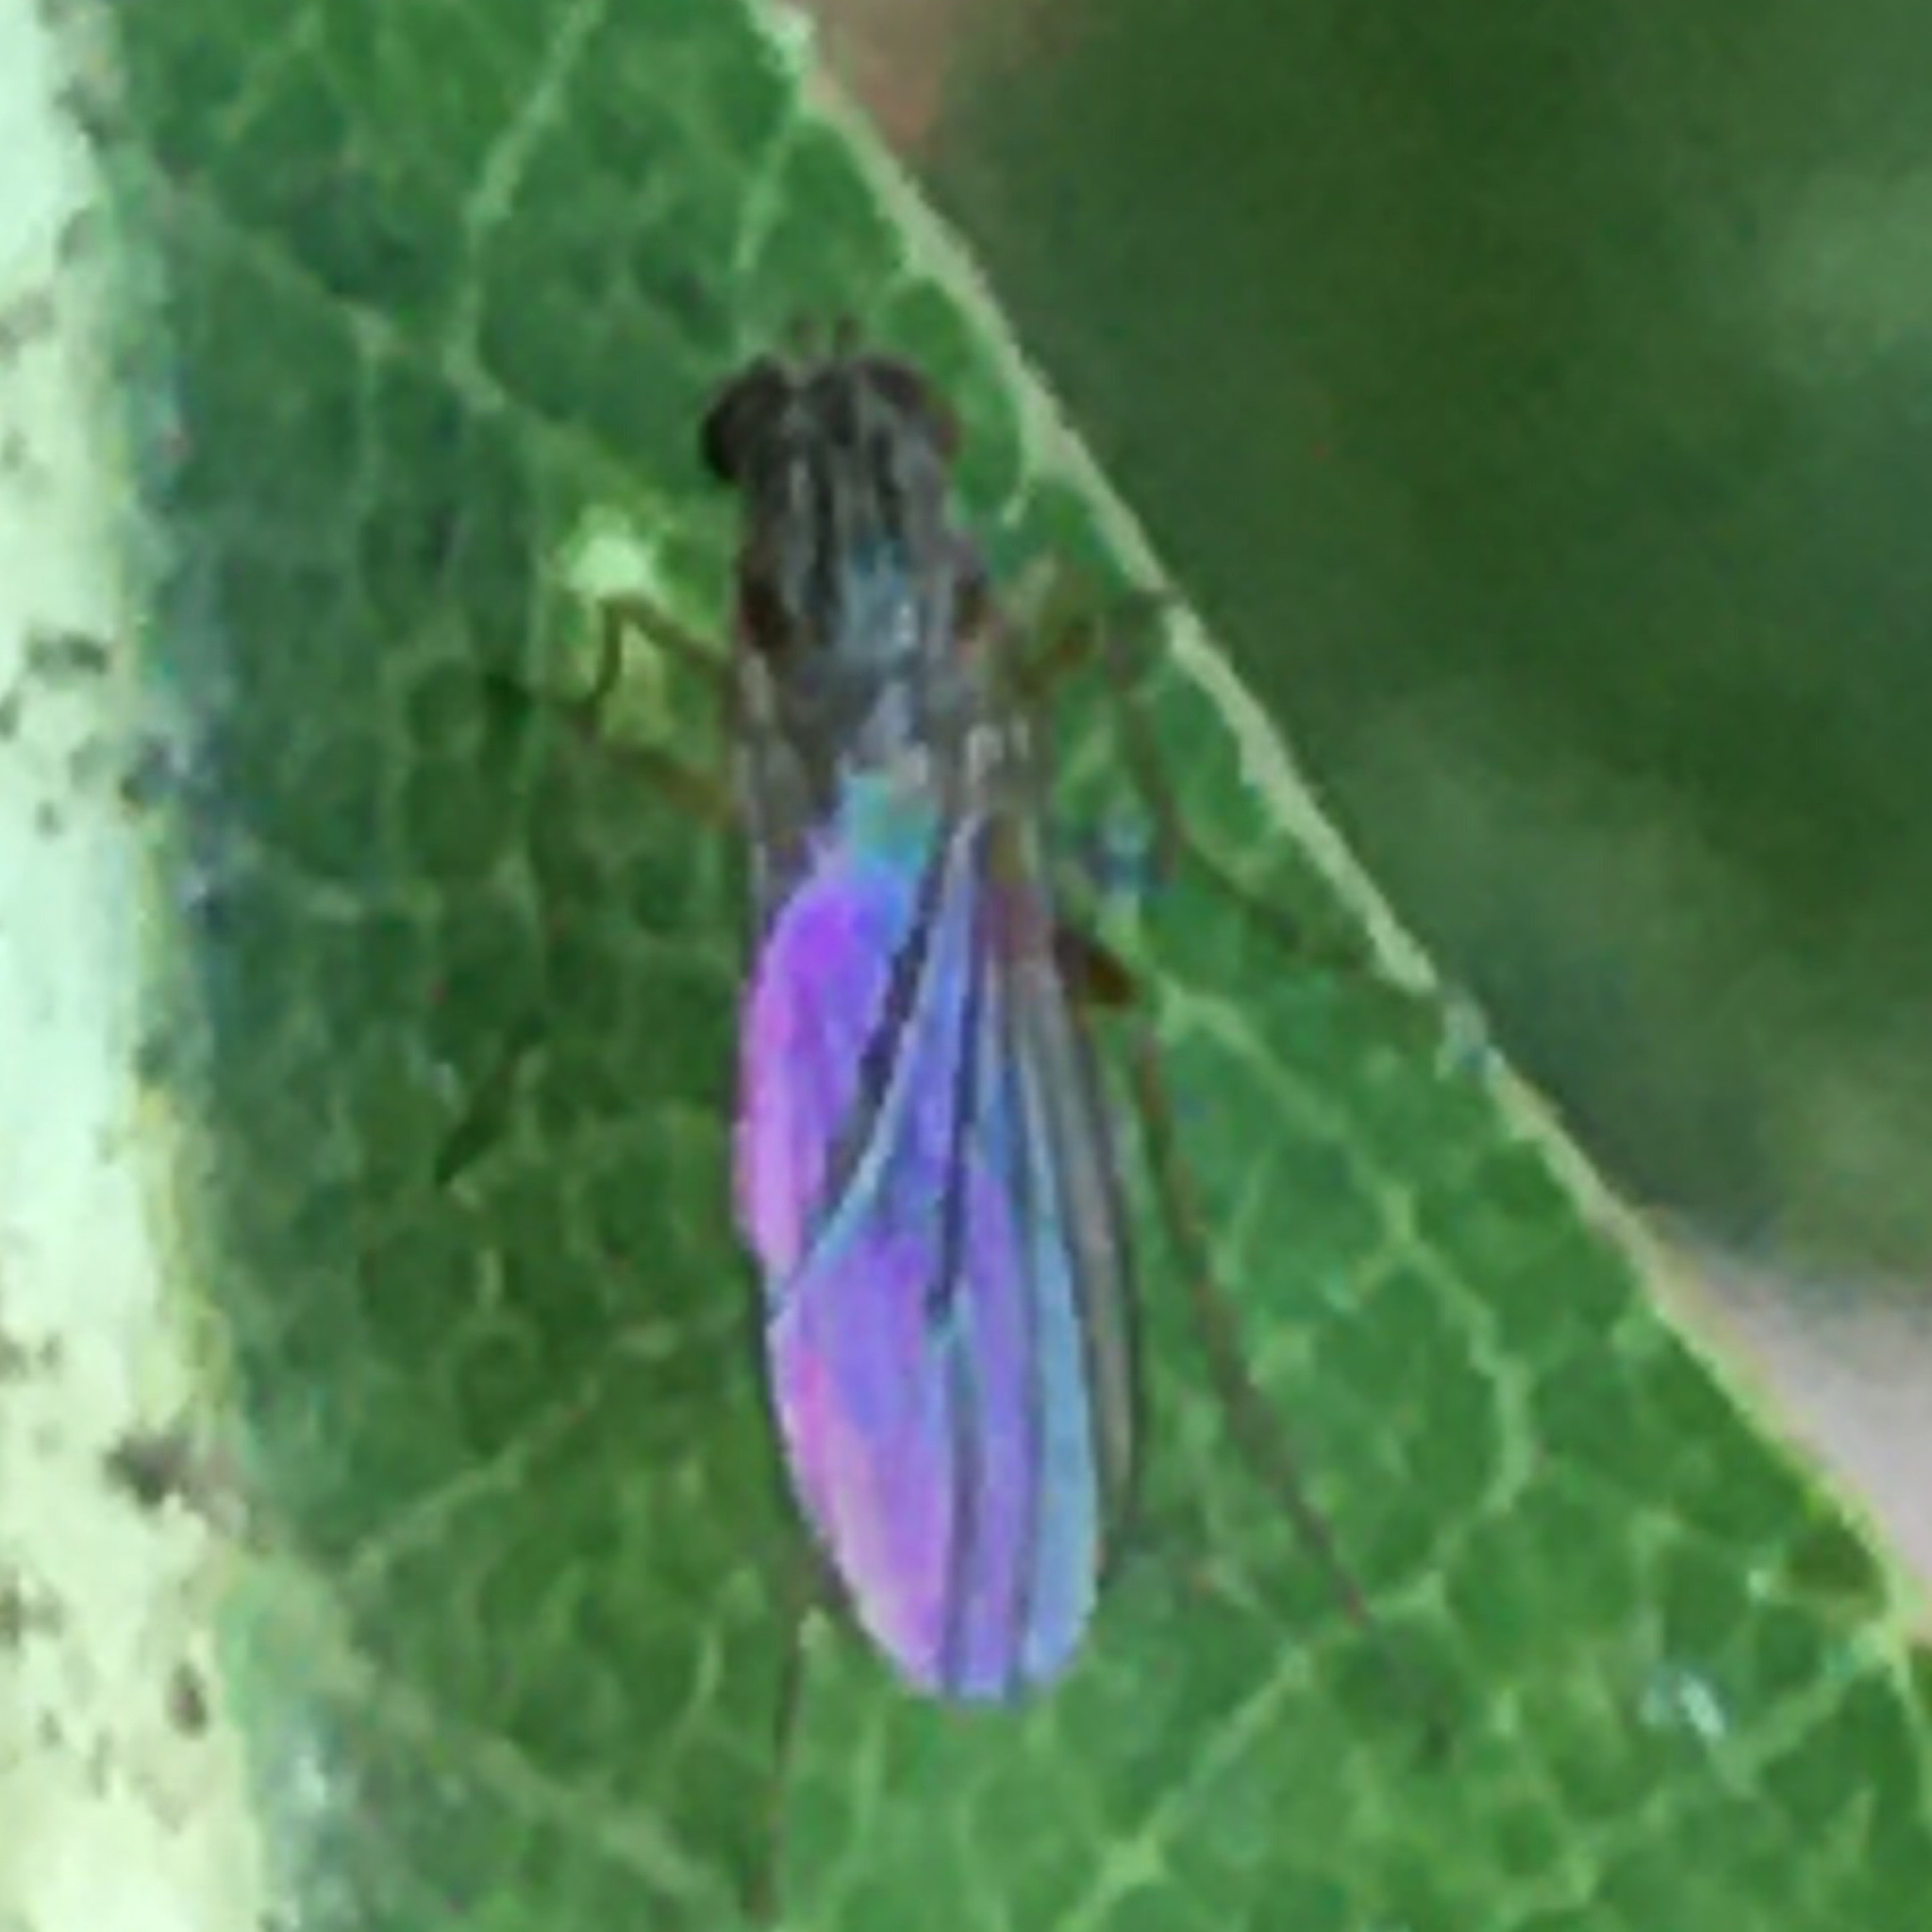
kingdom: Animalia
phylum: Arthropoda
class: Insecta
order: Diptera
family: Dolichopodidae
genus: Sympycnus
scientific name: Sympycnus lineatus
